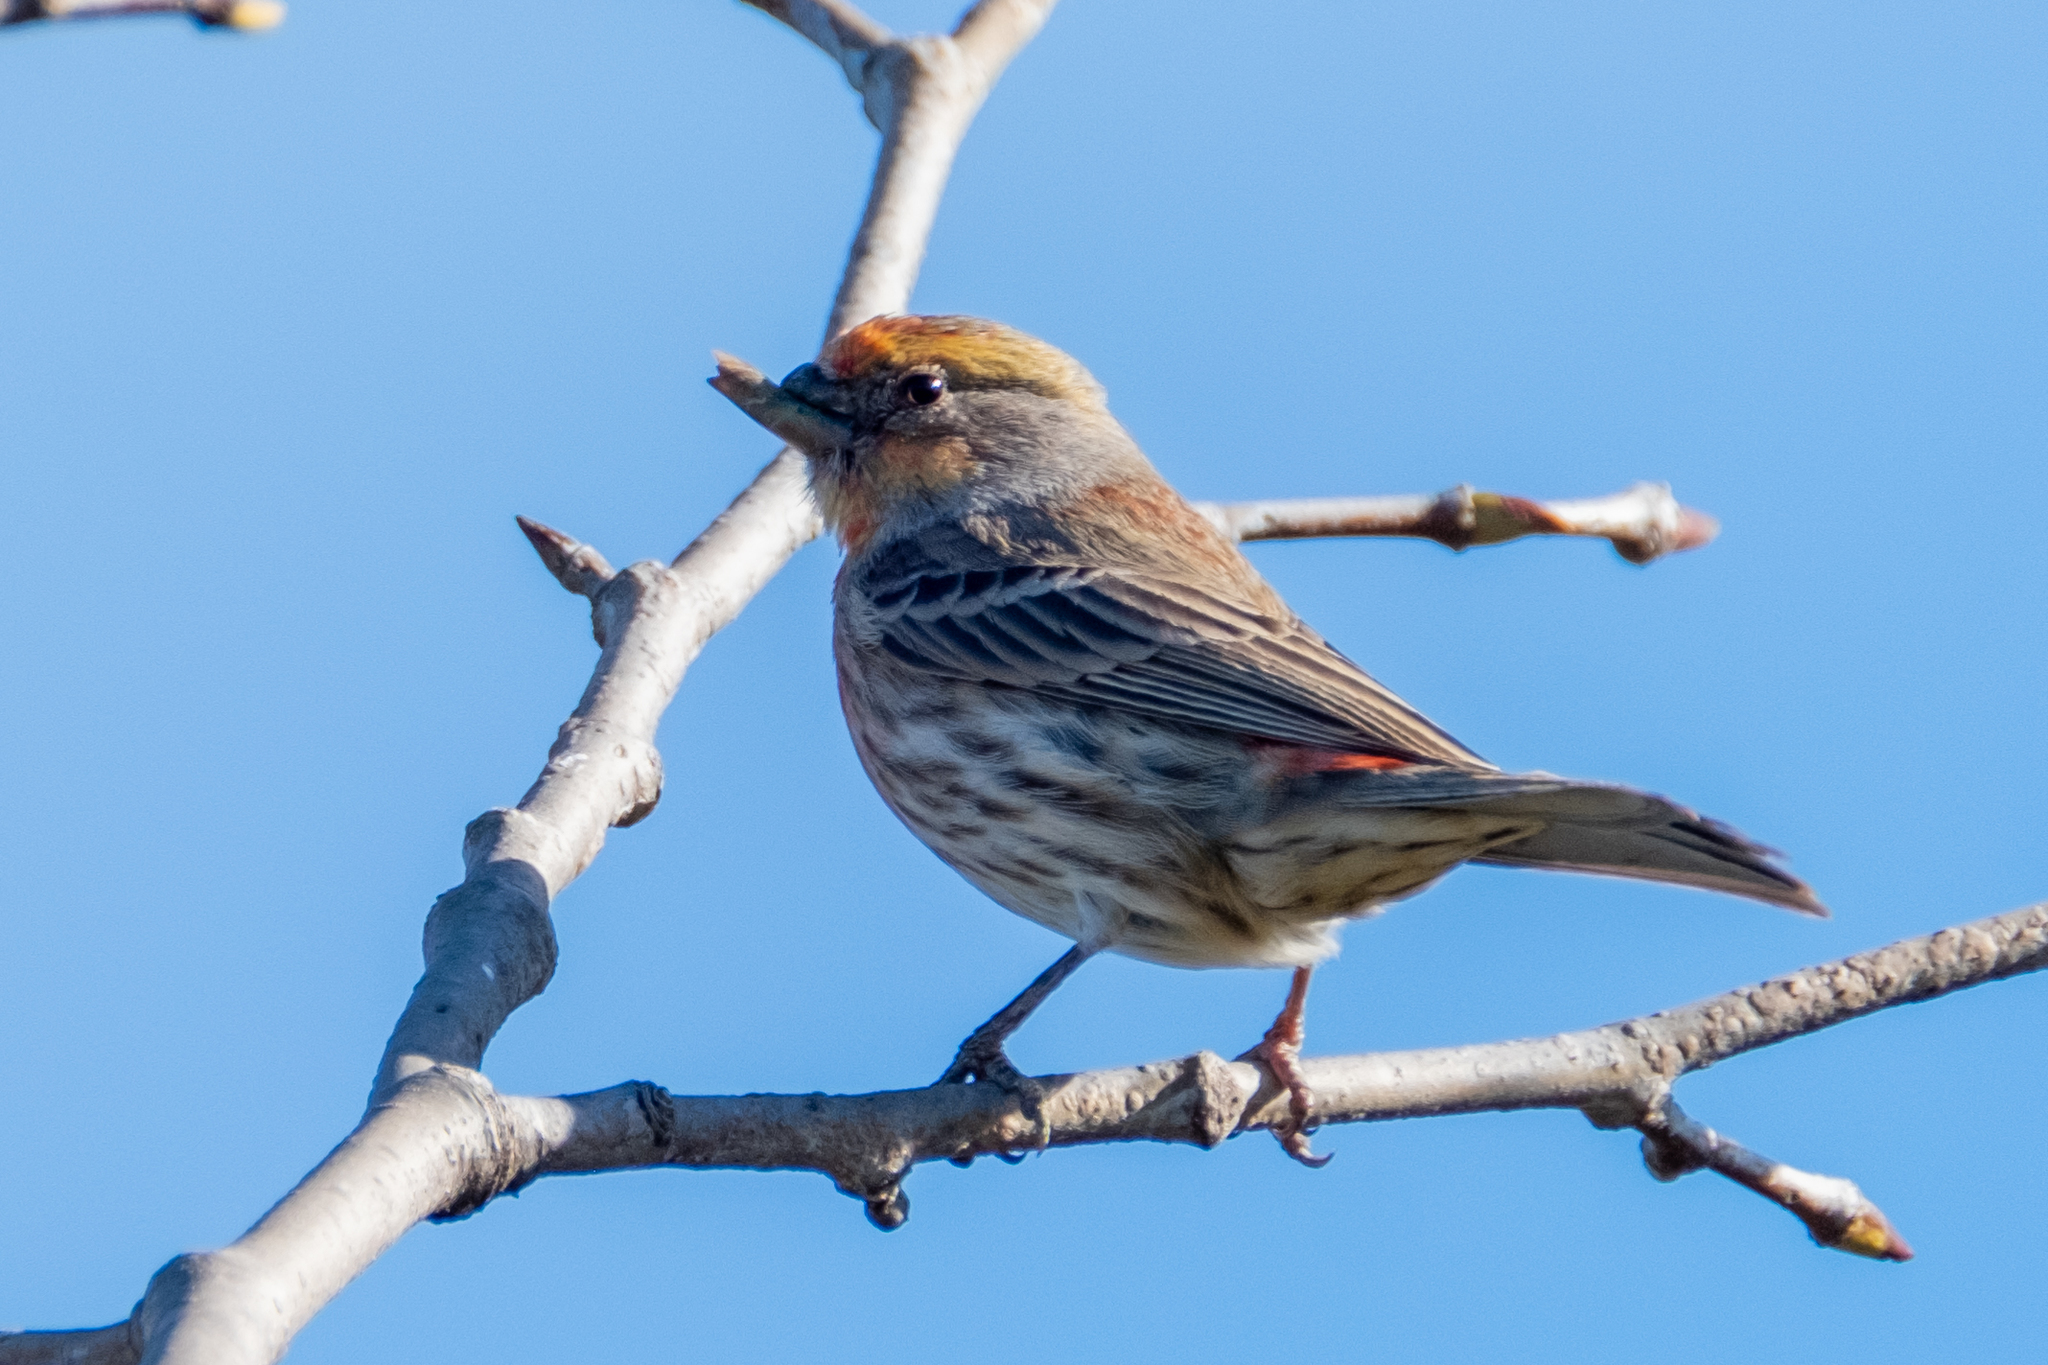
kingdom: Animalia
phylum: Chordata
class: Aves
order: Passeriformes
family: Fringillidae
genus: Haemorhous
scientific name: Haemorhous mexicanus
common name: House finch
